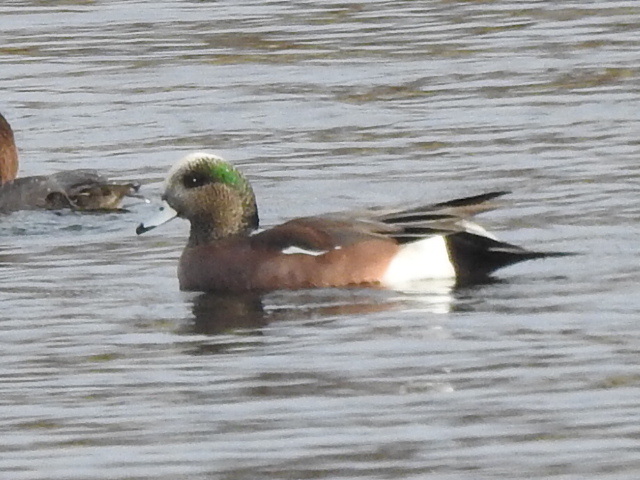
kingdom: Animalia
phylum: Chordata
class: Aves
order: Anseriformes
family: Anatidae
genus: Mareca
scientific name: Mareca americana
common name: American wigeon
